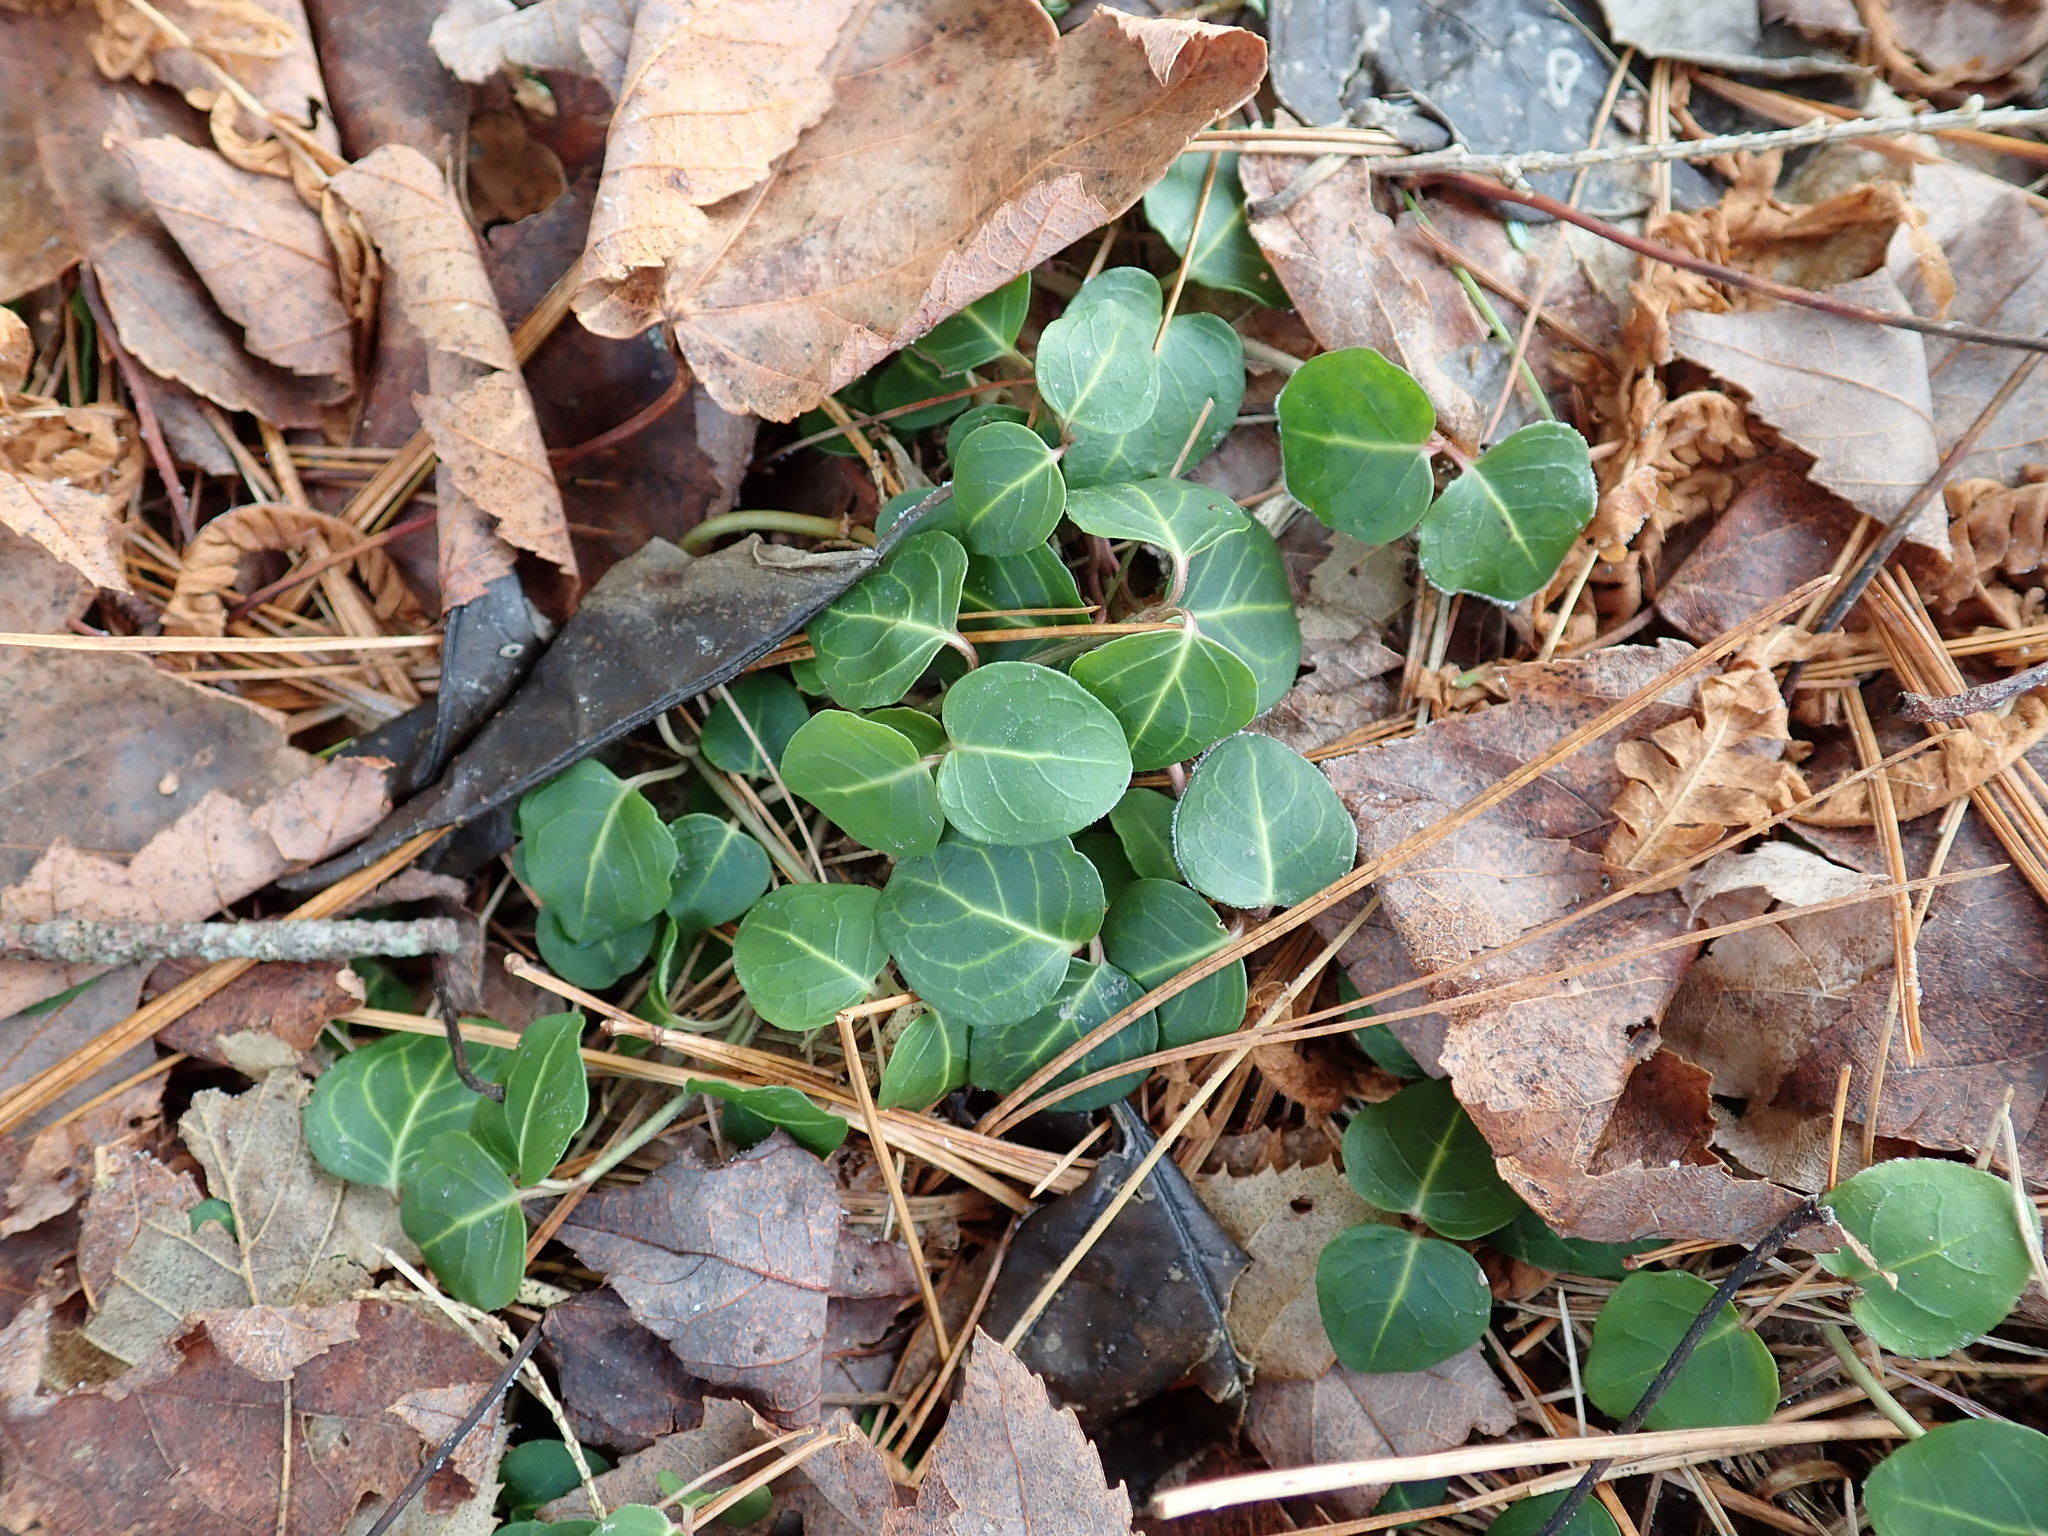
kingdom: Plantae
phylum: Tracheophyta
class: Magnoliopsida
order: Gentianales
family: Rubiaceae
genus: Mitchella
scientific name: Mitchella repens
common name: Partridge-berry
